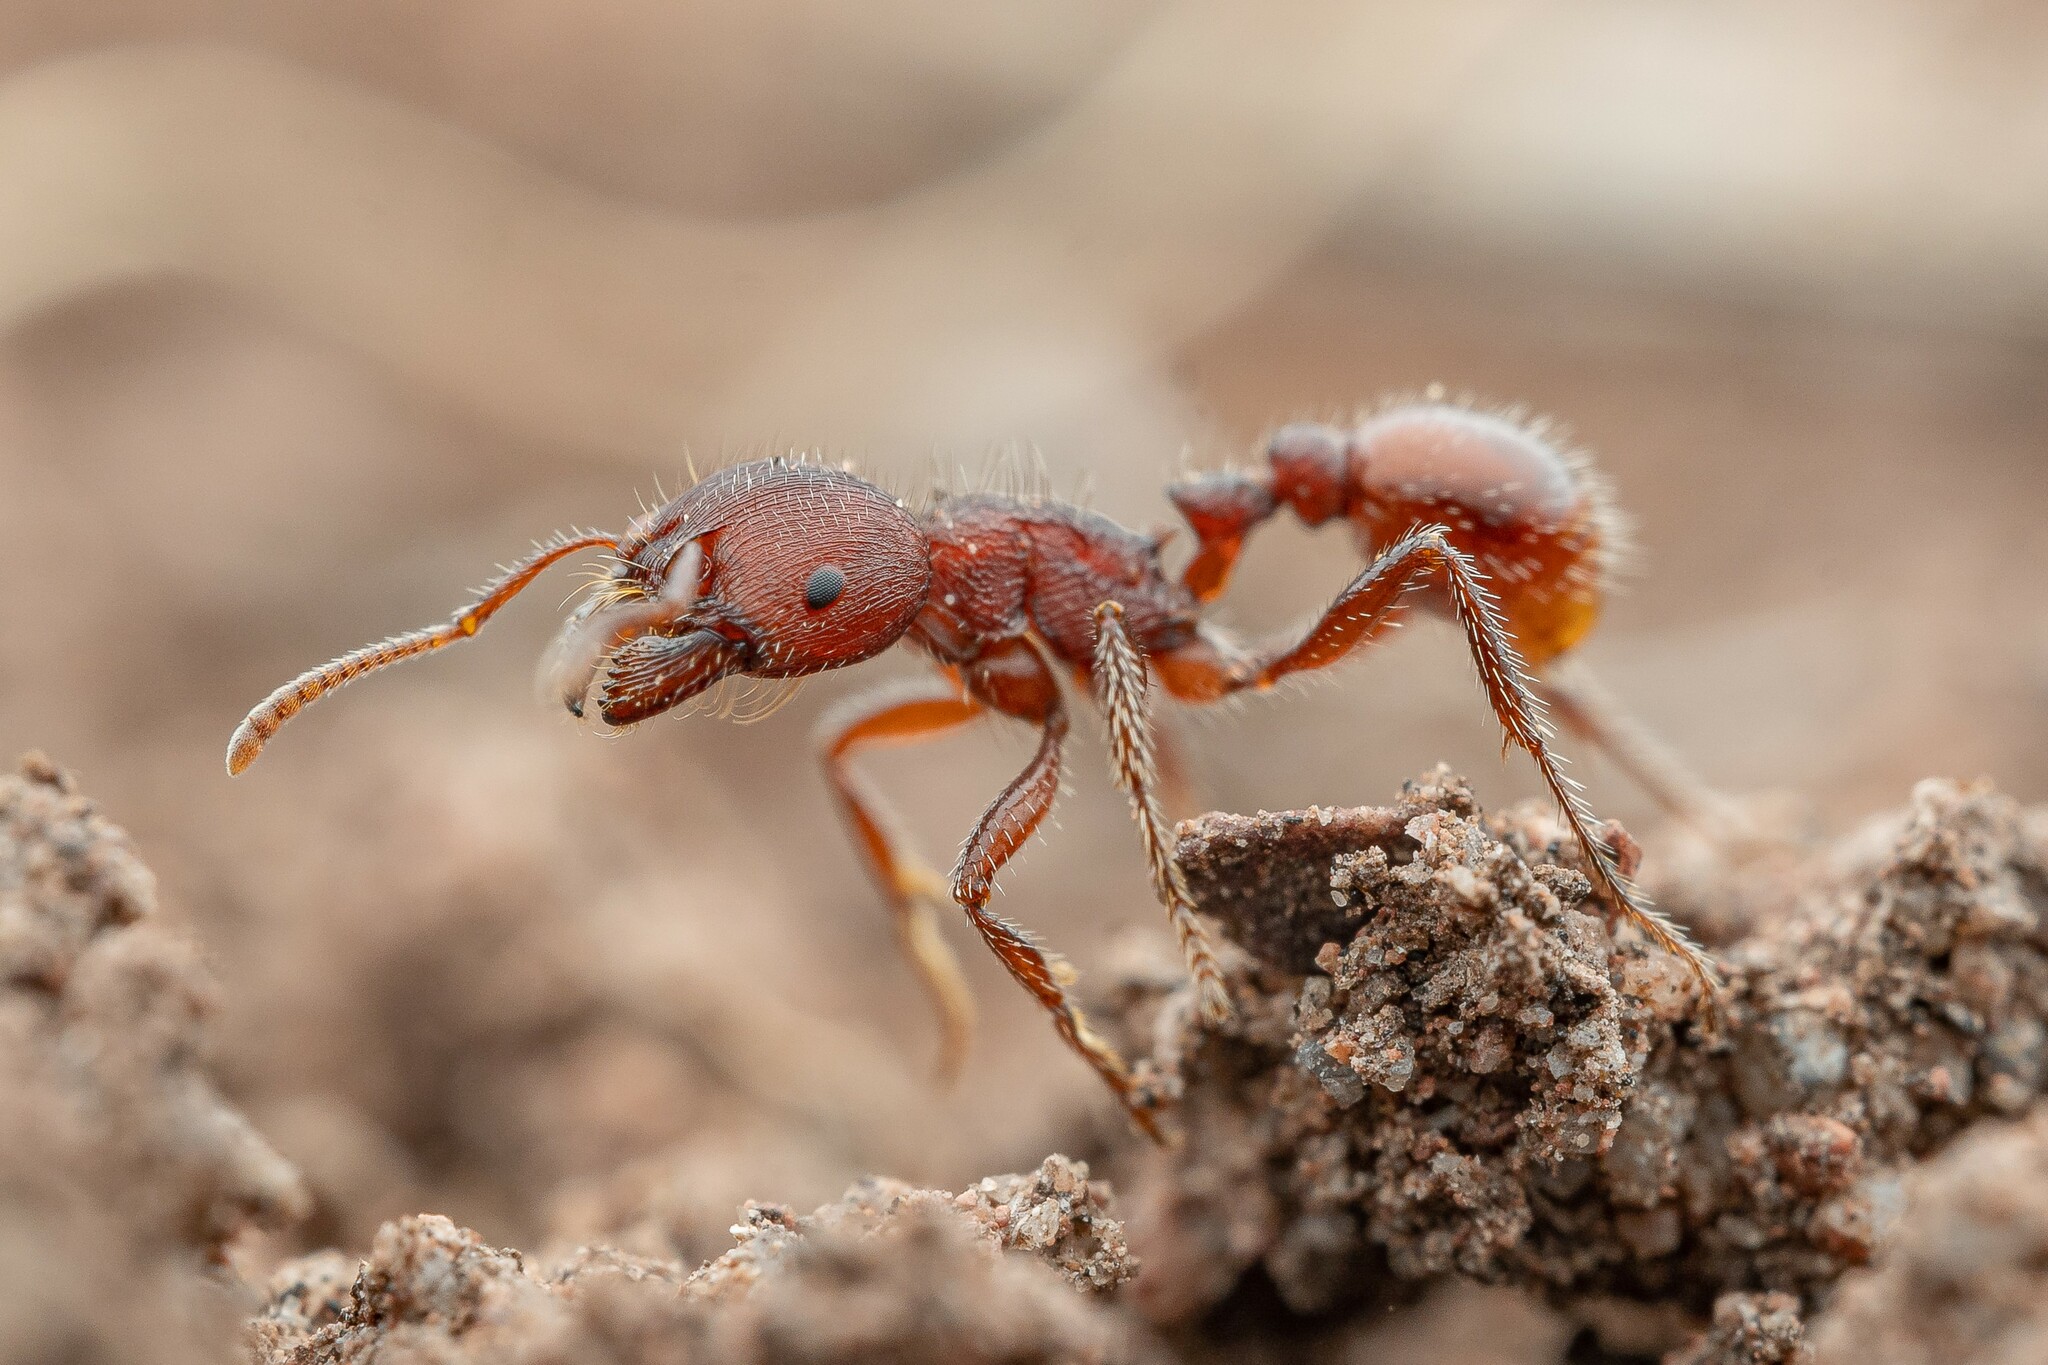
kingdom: Animalia
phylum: Arthropoda
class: Insecta
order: Hymenoptera
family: Formicidae
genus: Pogonomyrmex
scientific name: Pogonomyrmex huachucanus
